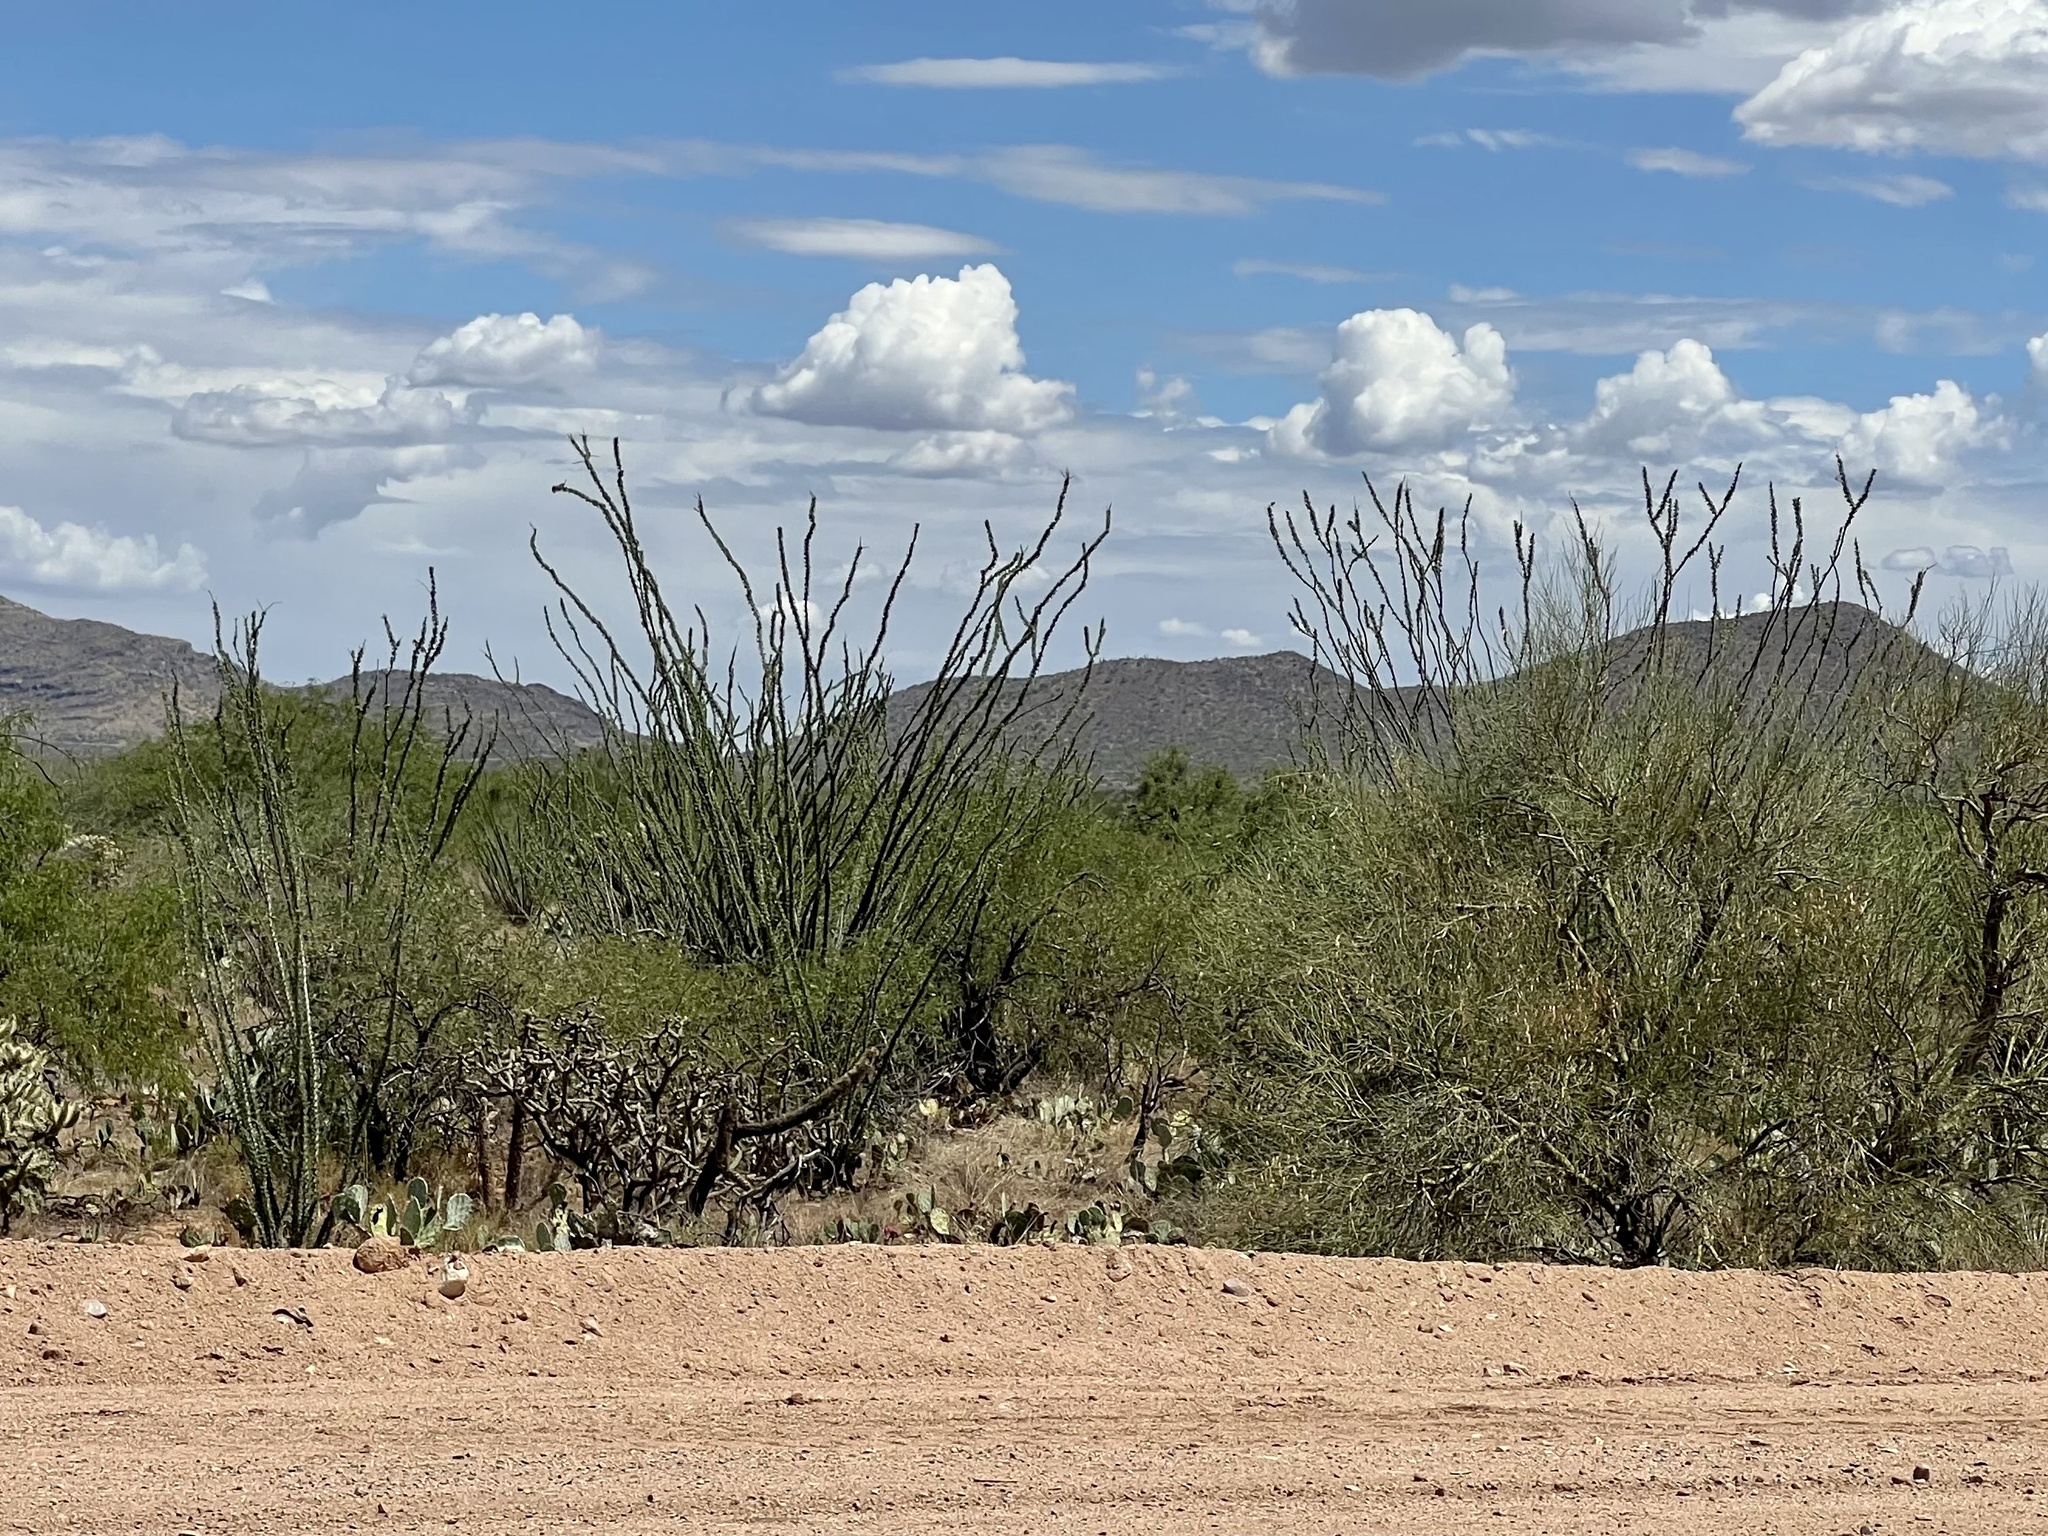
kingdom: Plantae
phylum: Tracheophyta
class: Magnoliopsida
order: Ericales
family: Fouquieriaceae
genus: Fouquieria
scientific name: Fouquieria splendens
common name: Vine-cactus
